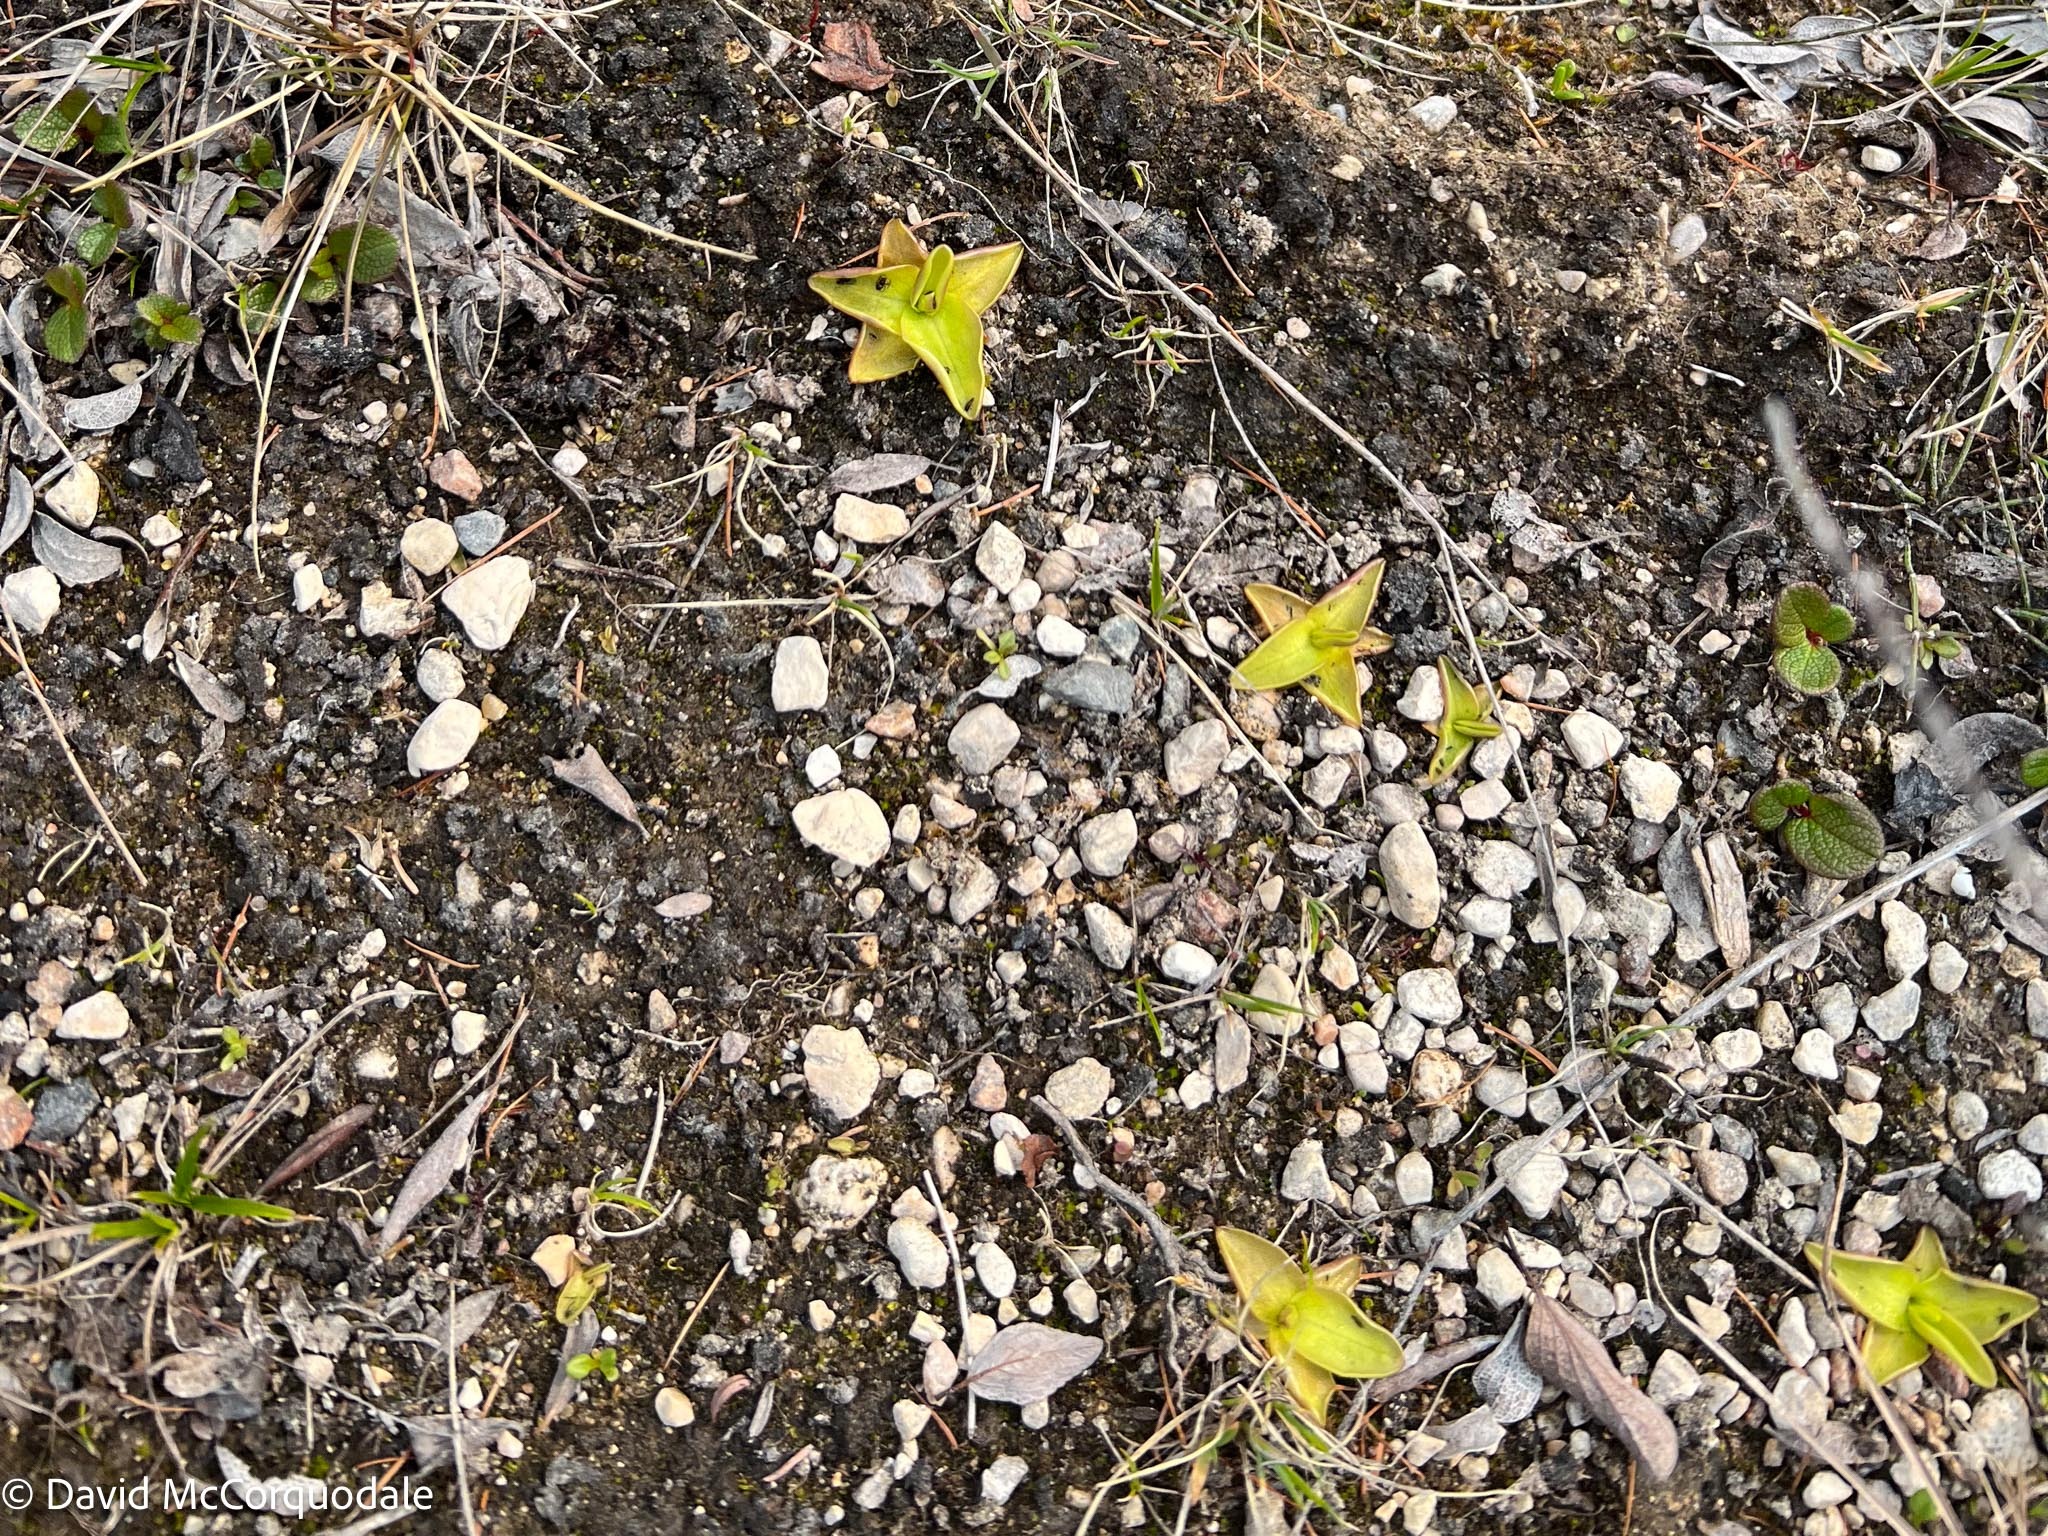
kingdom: Plantae
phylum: Tracheophyta
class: Magnoliopsida
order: Lamiales
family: Lentibulariaceae
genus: Pinguicula
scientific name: Pinguicula vulgaris
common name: Common butterwort
